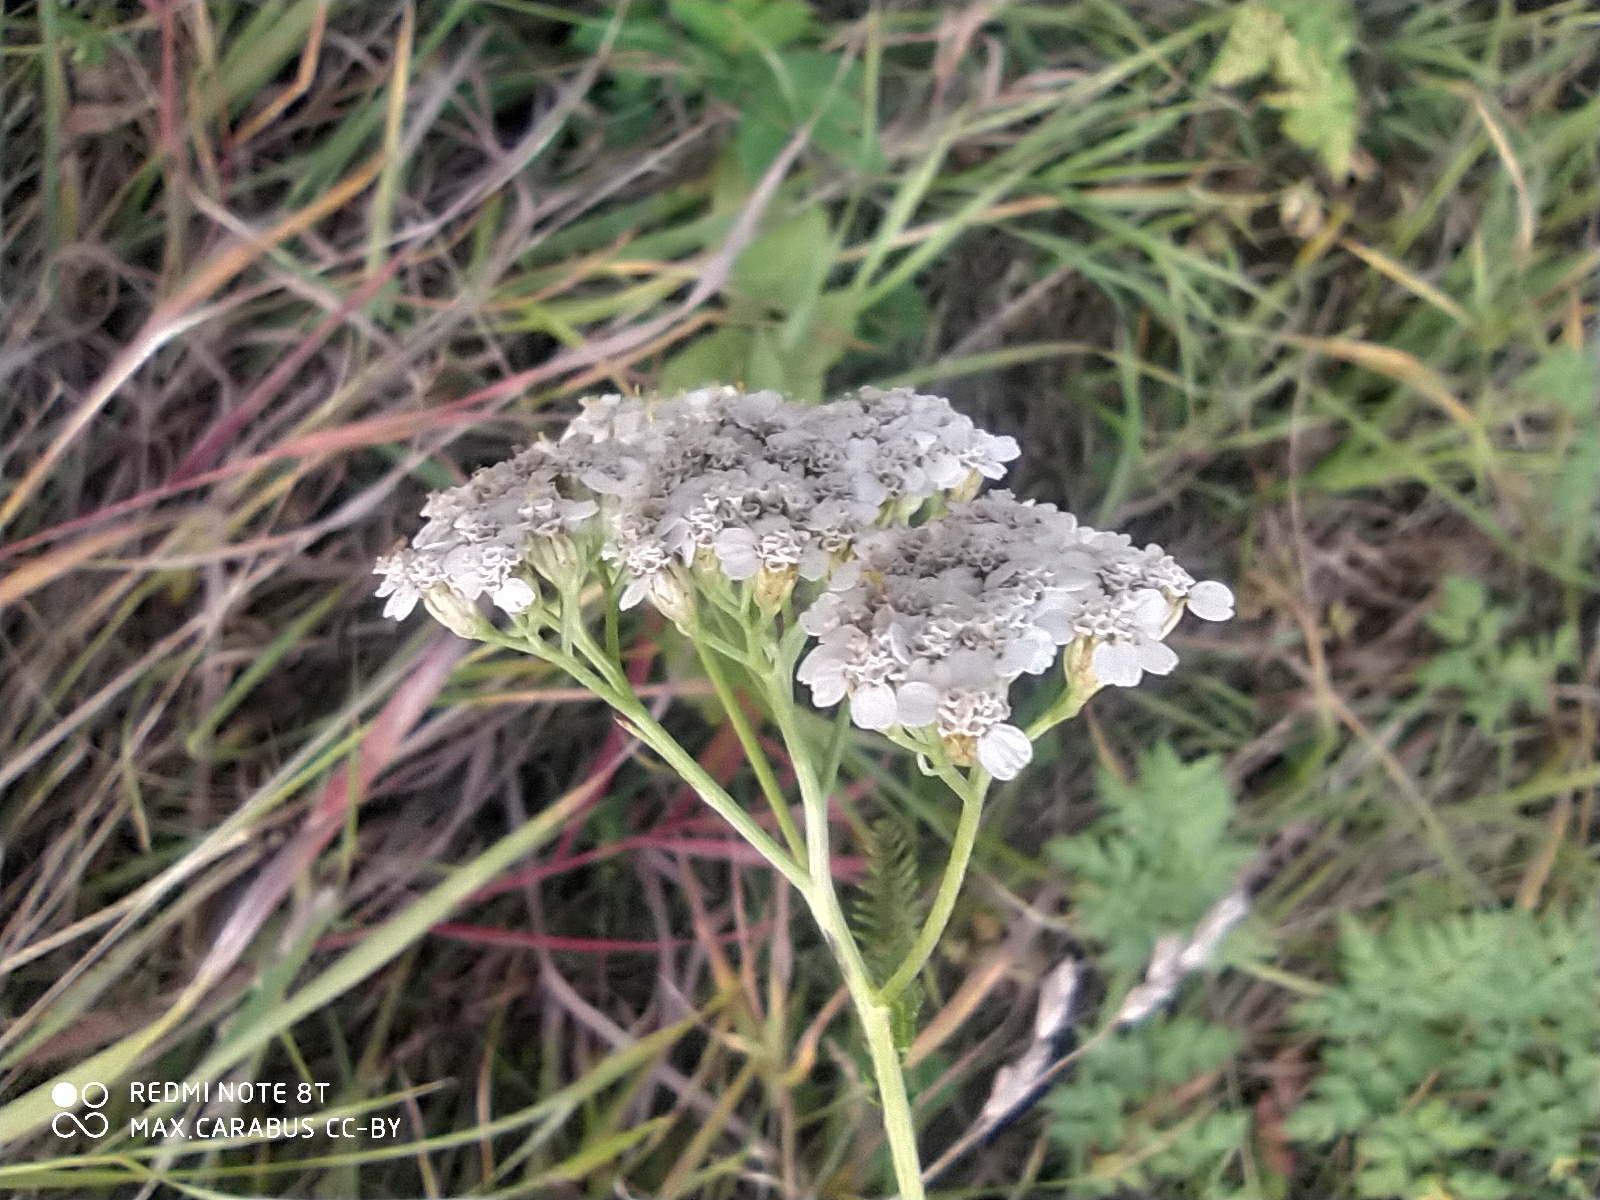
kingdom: Plantae
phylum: Tracheophyta
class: Magnoliopsida
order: Asterales
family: Asteraceae
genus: Achillea
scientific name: Achillea millefolium
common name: Yarrow
